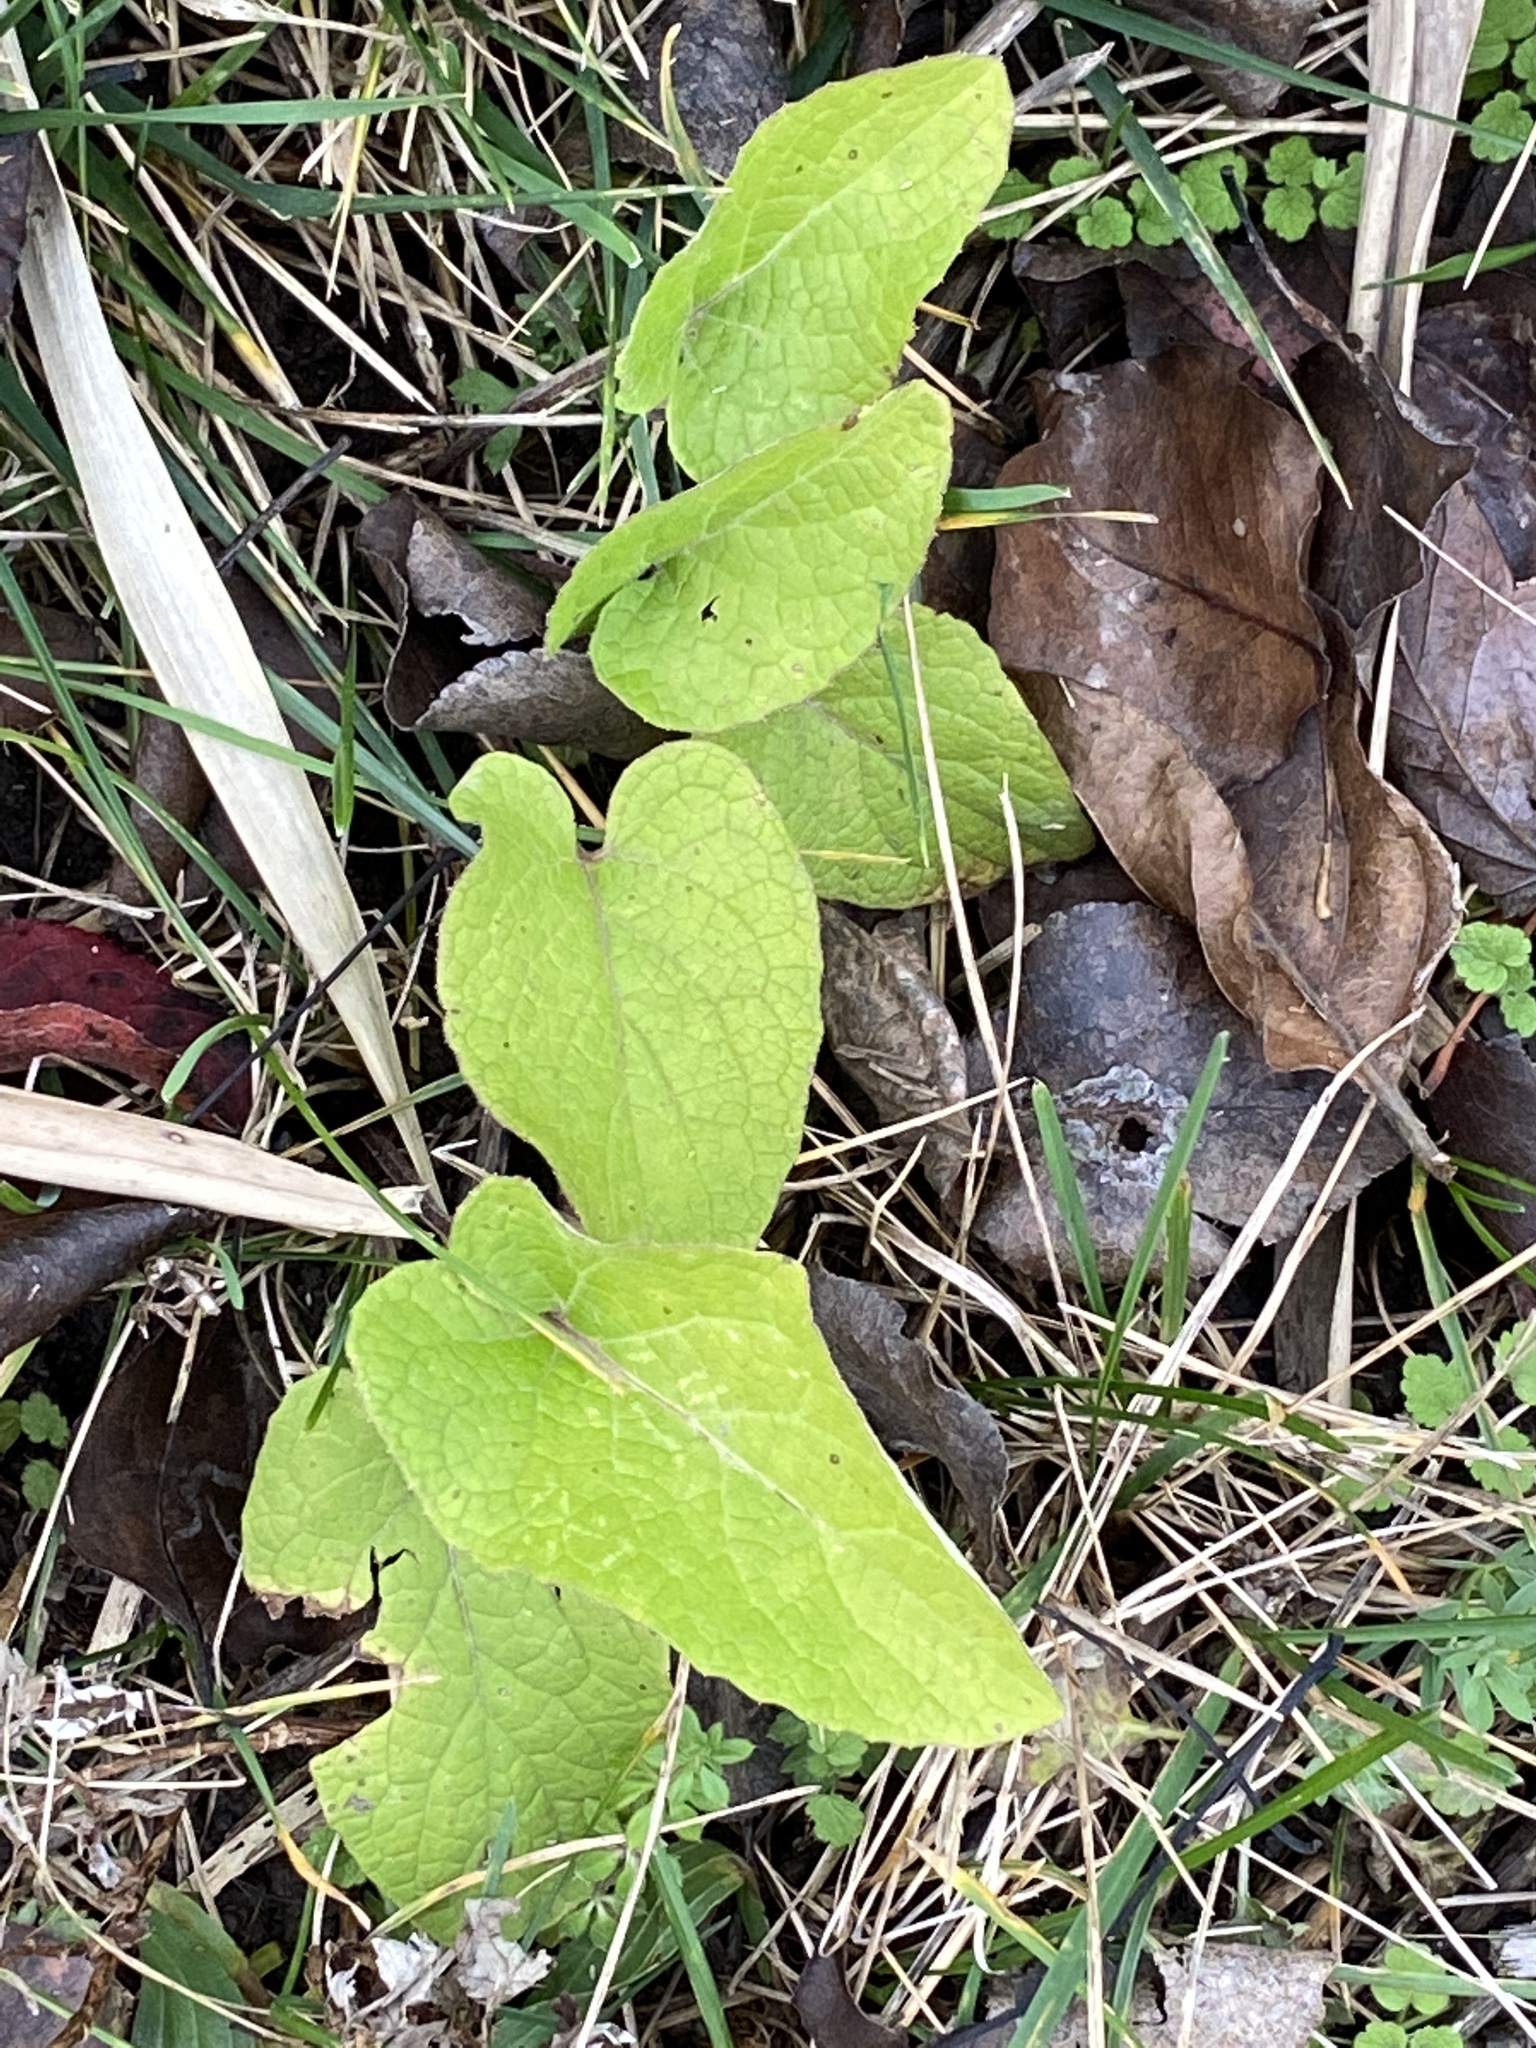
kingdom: Plantae
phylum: Tracheophyta
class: Magnoliopsida
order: Asterales
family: Asteraceae
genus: Arctium
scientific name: Arctium
